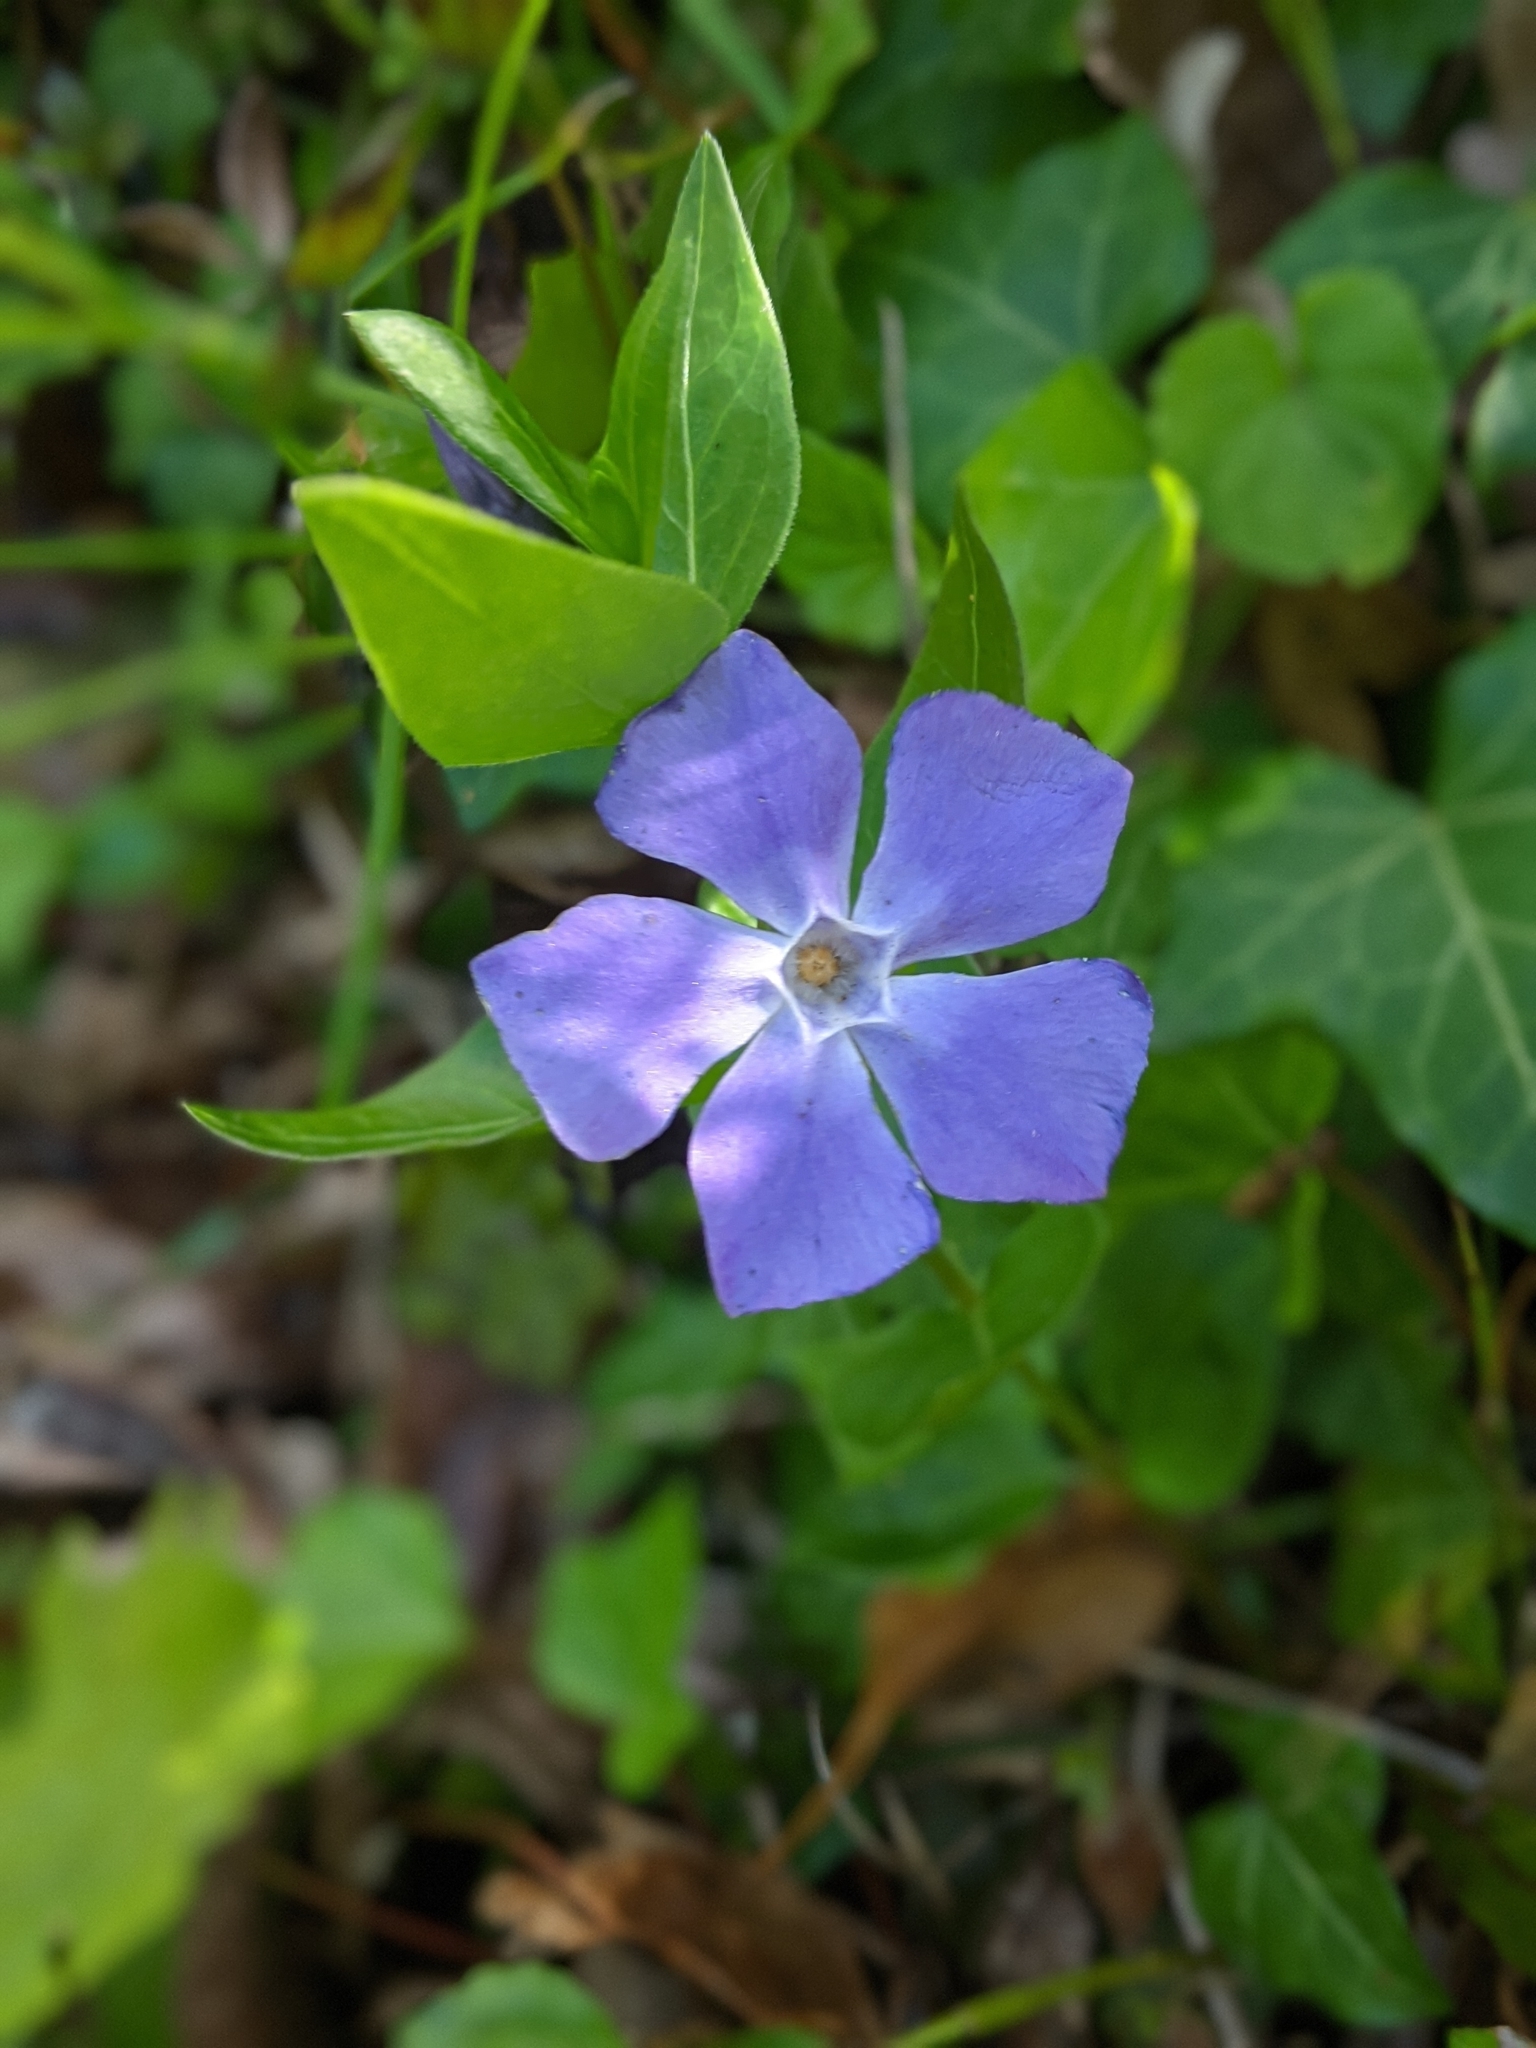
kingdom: Plantae
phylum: Tracheophyta
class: Magnoliopsida
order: Gentianales
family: Apocynaceae
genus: Vinca
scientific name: Vinca major
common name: Greater periwinkle
